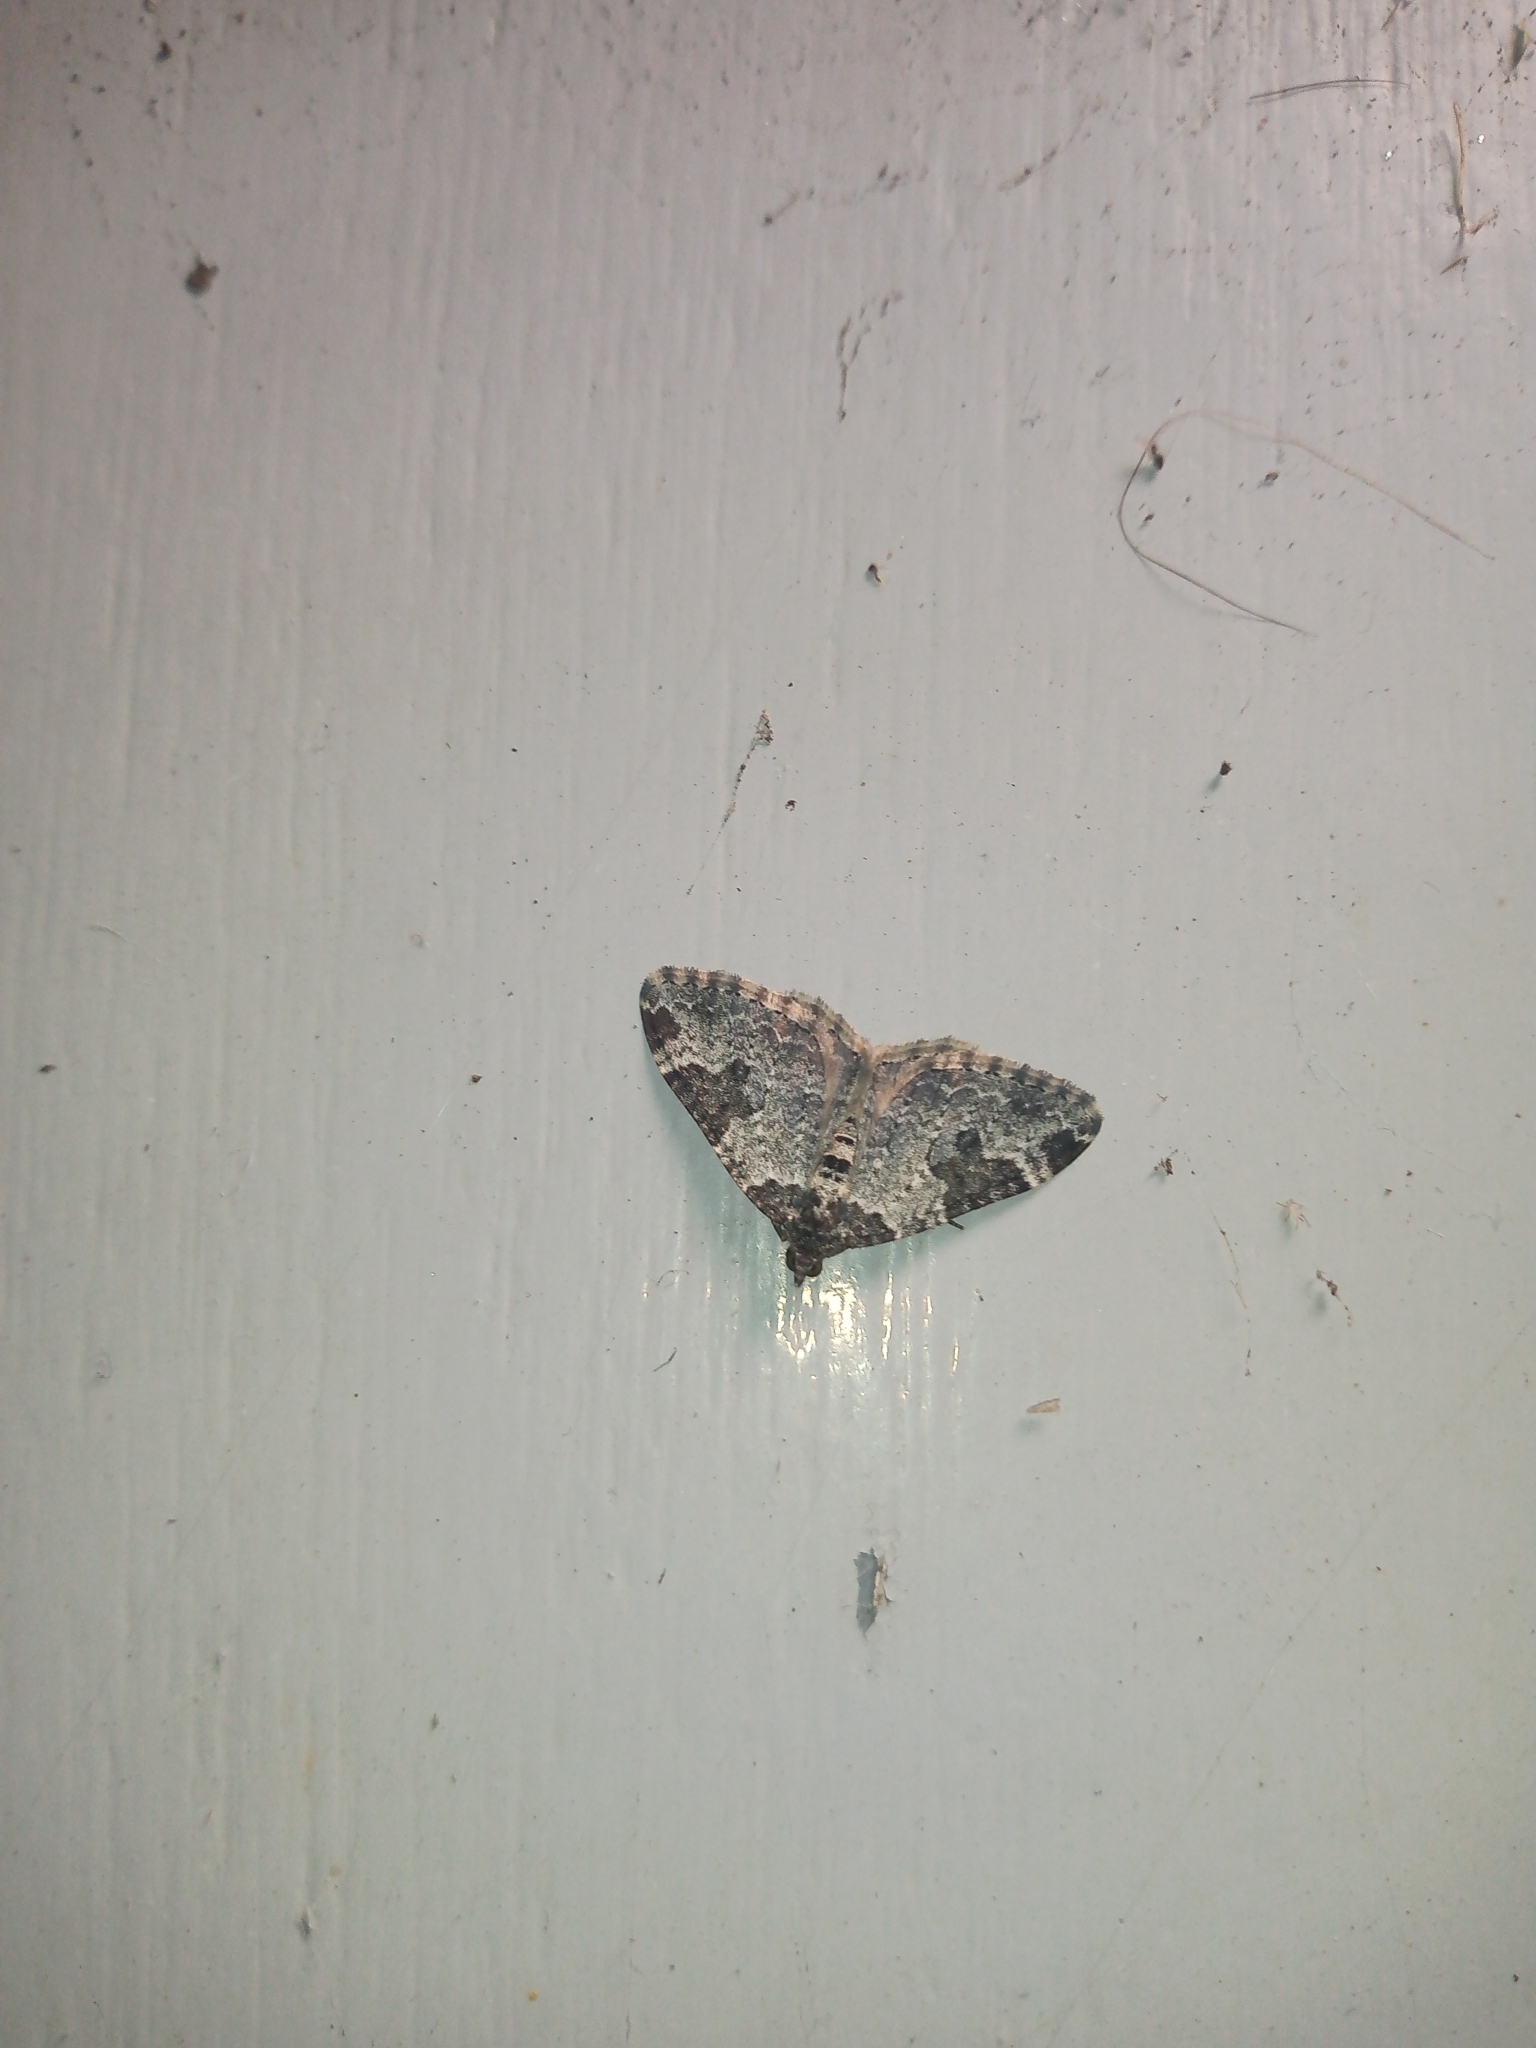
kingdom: Animalia
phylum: Arthropoda
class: Insecta
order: Lepidoptera
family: Geometridae
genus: Xanthorhoe
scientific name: Xanthorhoe fluctuata
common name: Garden carpet
